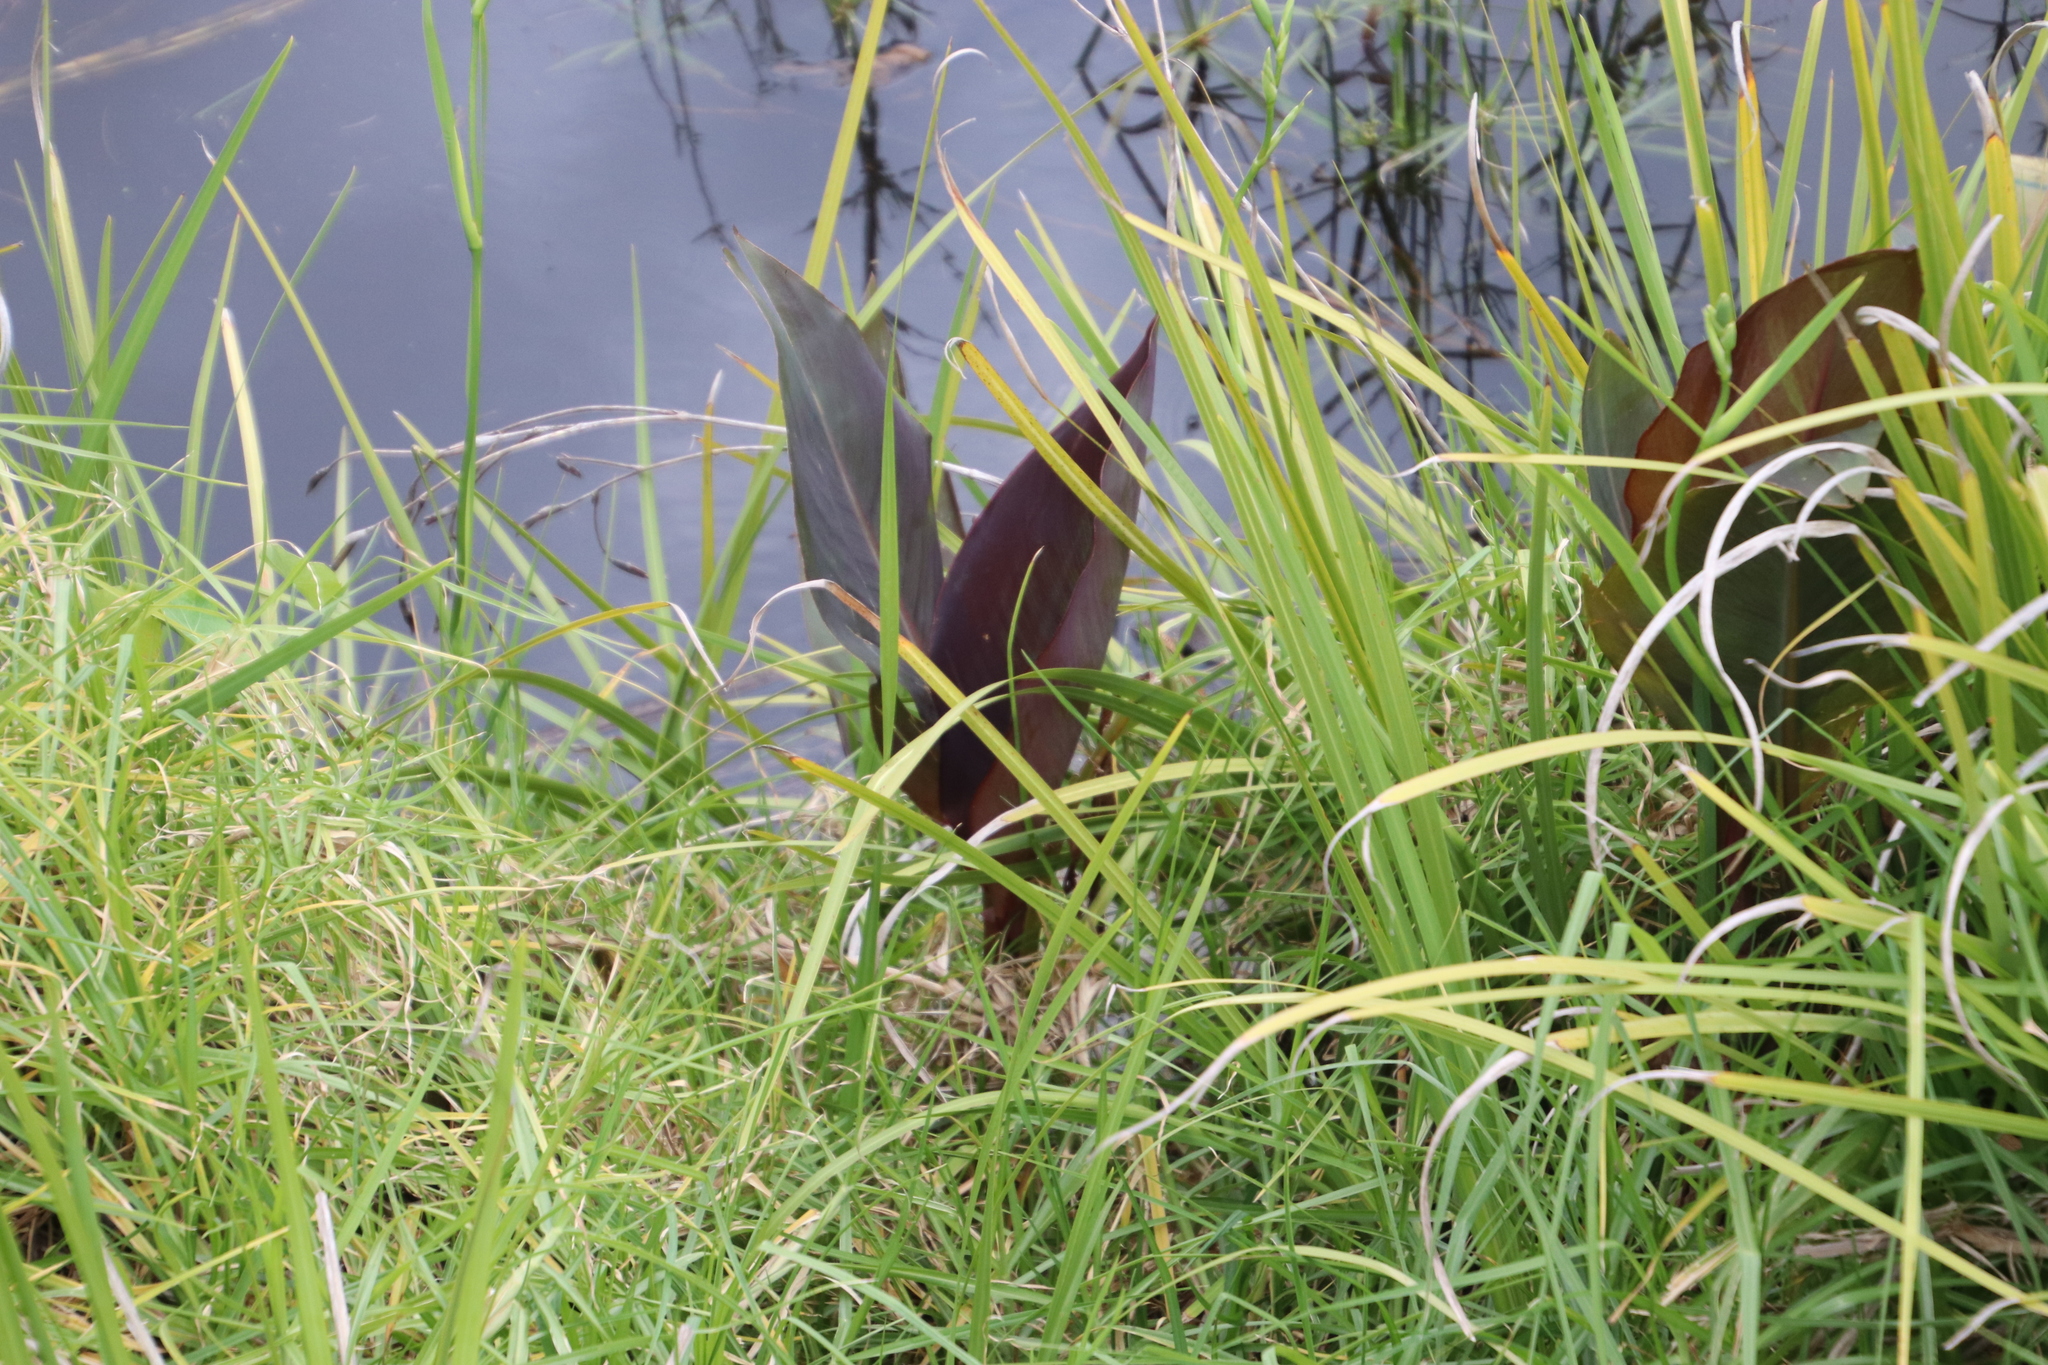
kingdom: Plantae
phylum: Tracheophyta
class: Liliopsida
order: Zingiberales
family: Cannaceae
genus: Canna
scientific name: Canna indica
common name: Indian shot
